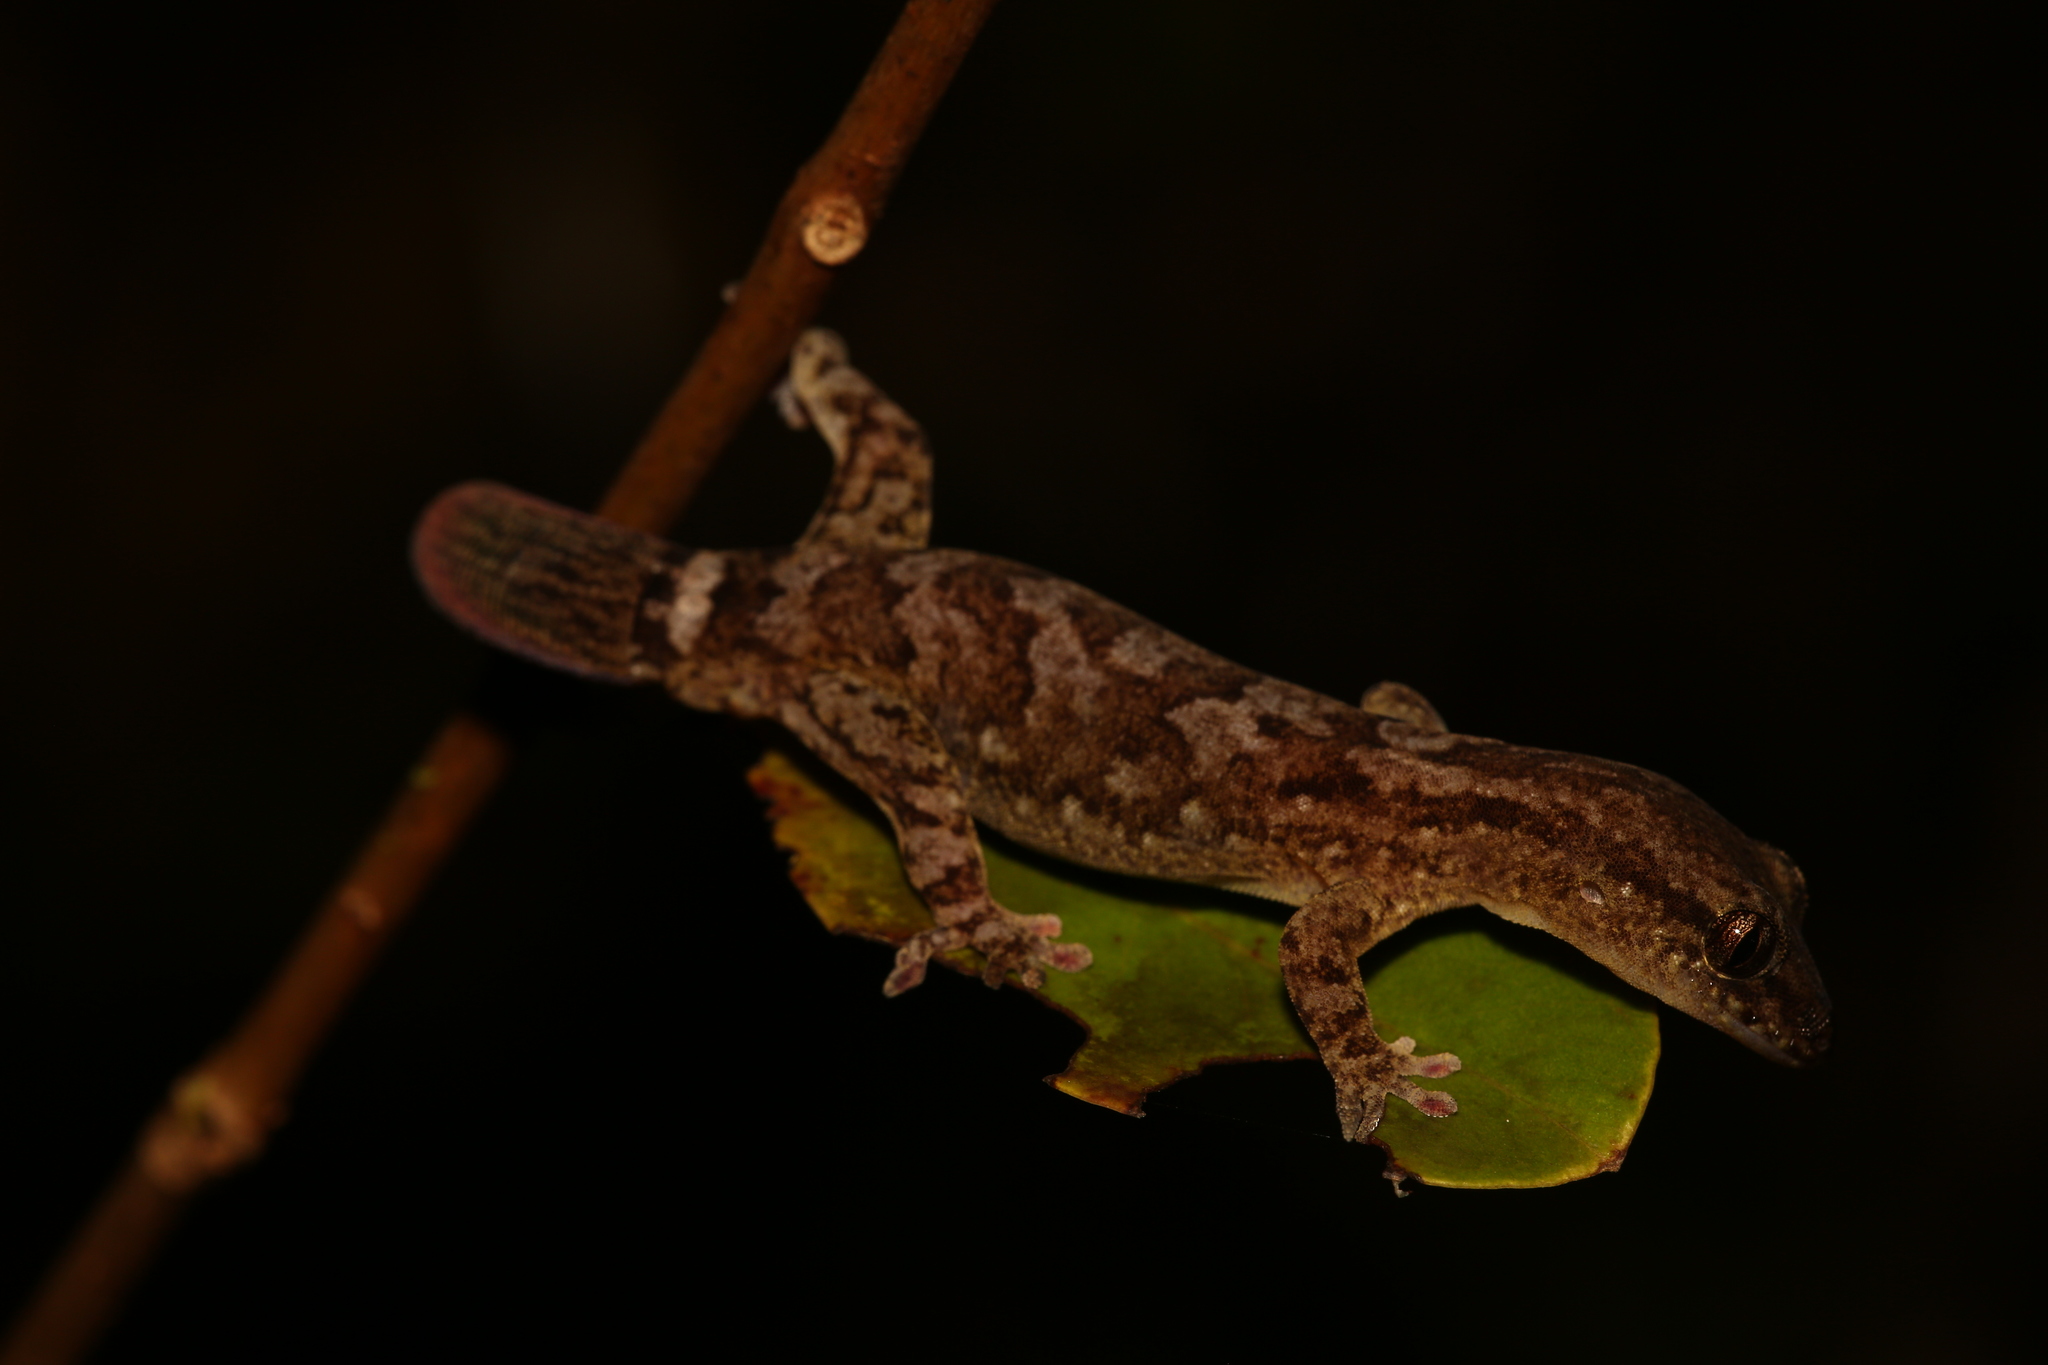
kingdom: Animalia
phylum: Chordata
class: Squamata
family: Diplodactylidae
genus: Bavayia
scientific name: Bavayia sauvagii
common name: Sauvage's new caledonian gecko
